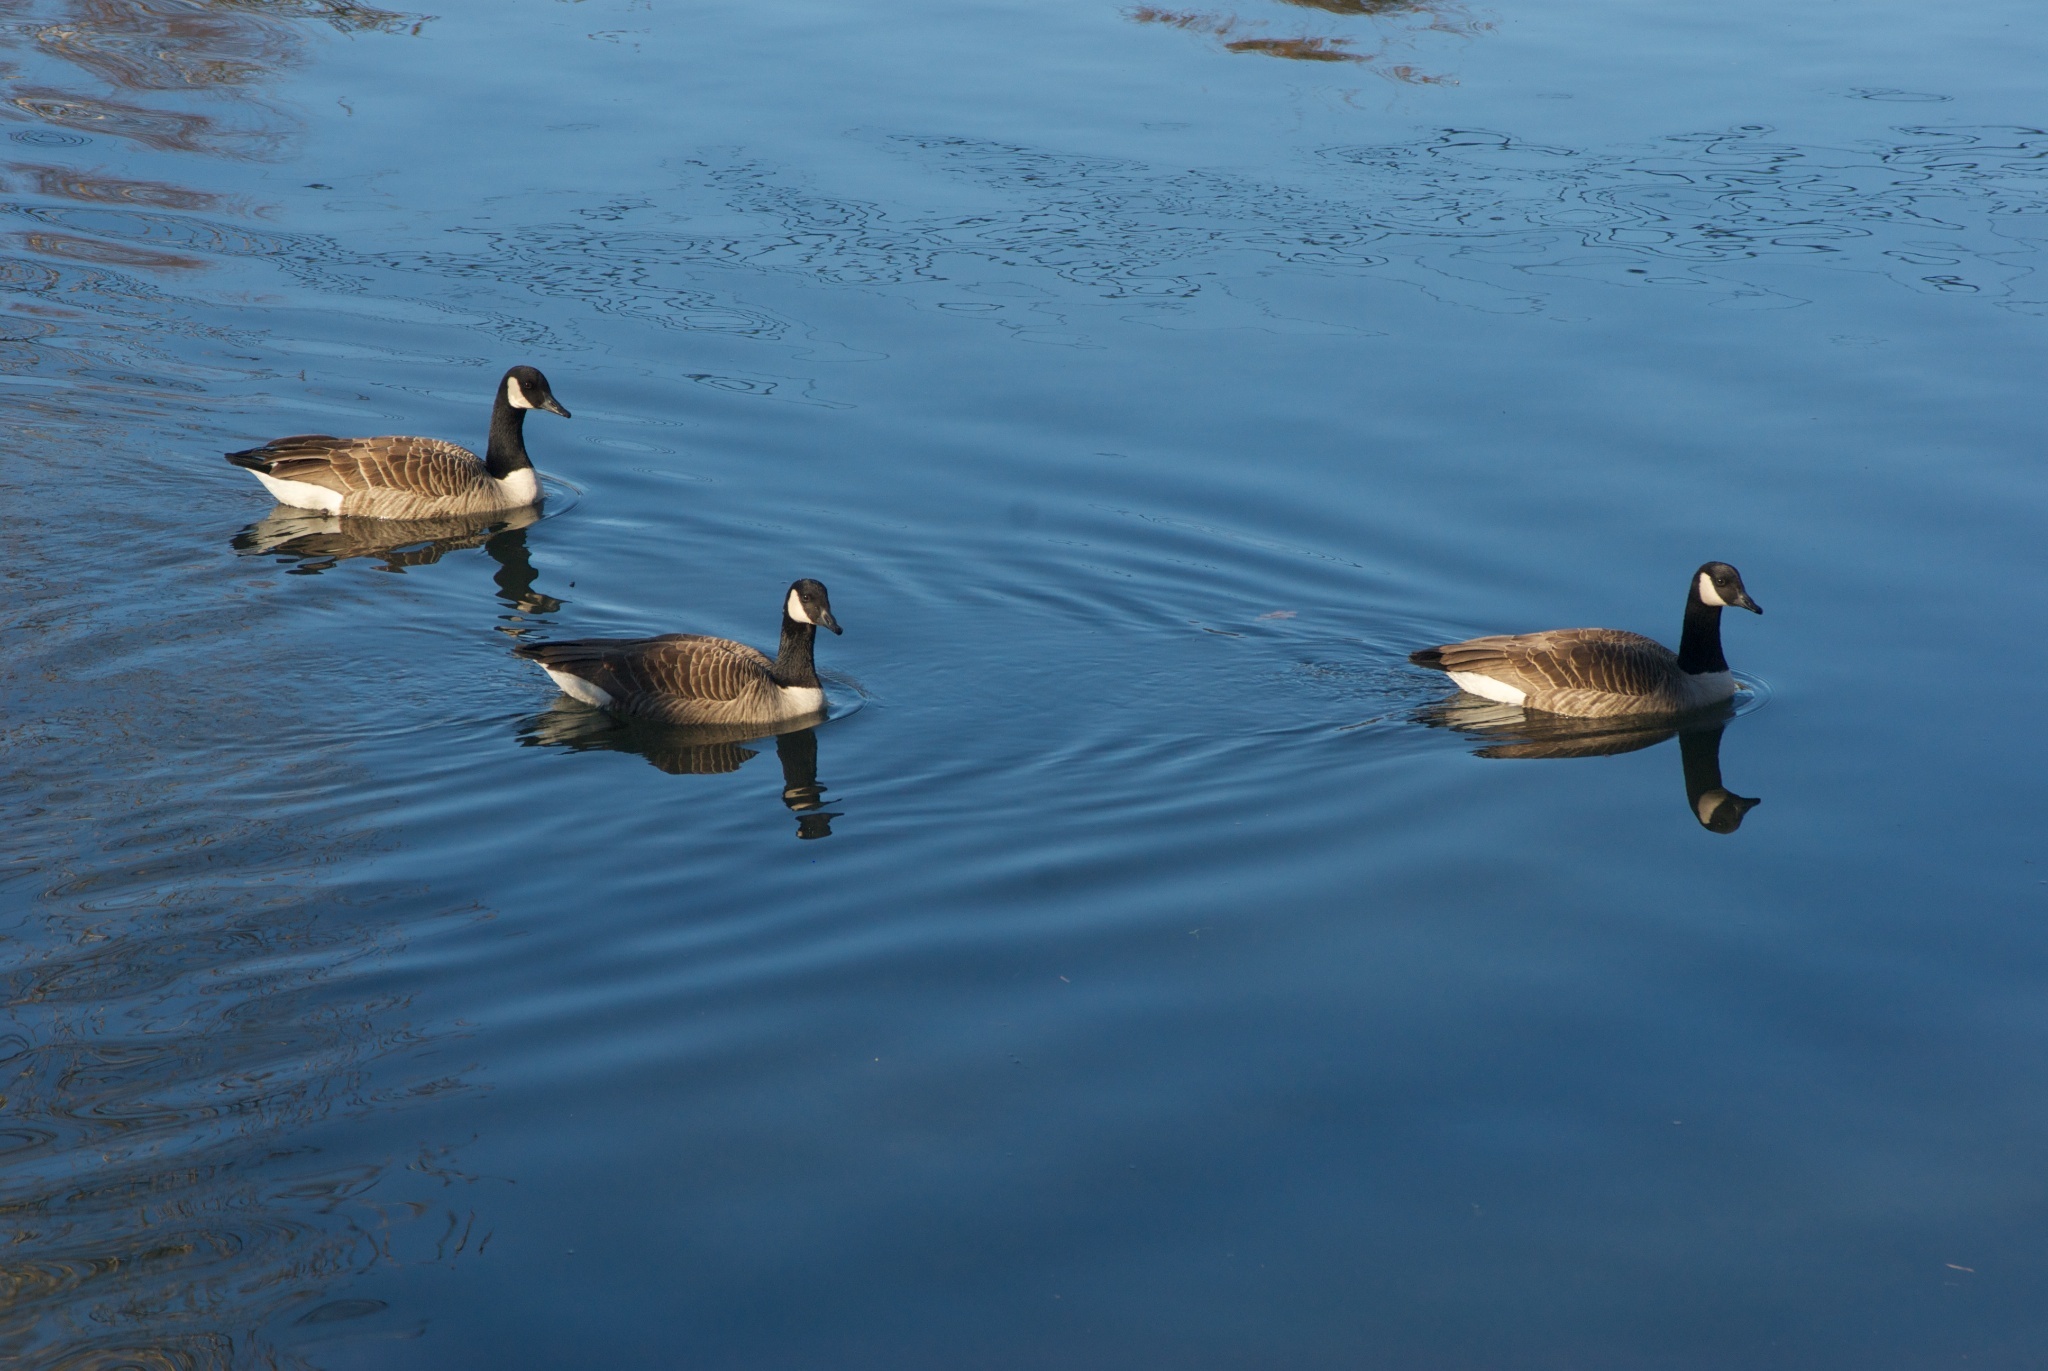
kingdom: Animalia
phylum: Chordata
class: Aves
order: Anseriformes
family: Anatidae
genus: Branta
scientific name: Branta canadensis
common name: Canada goose
